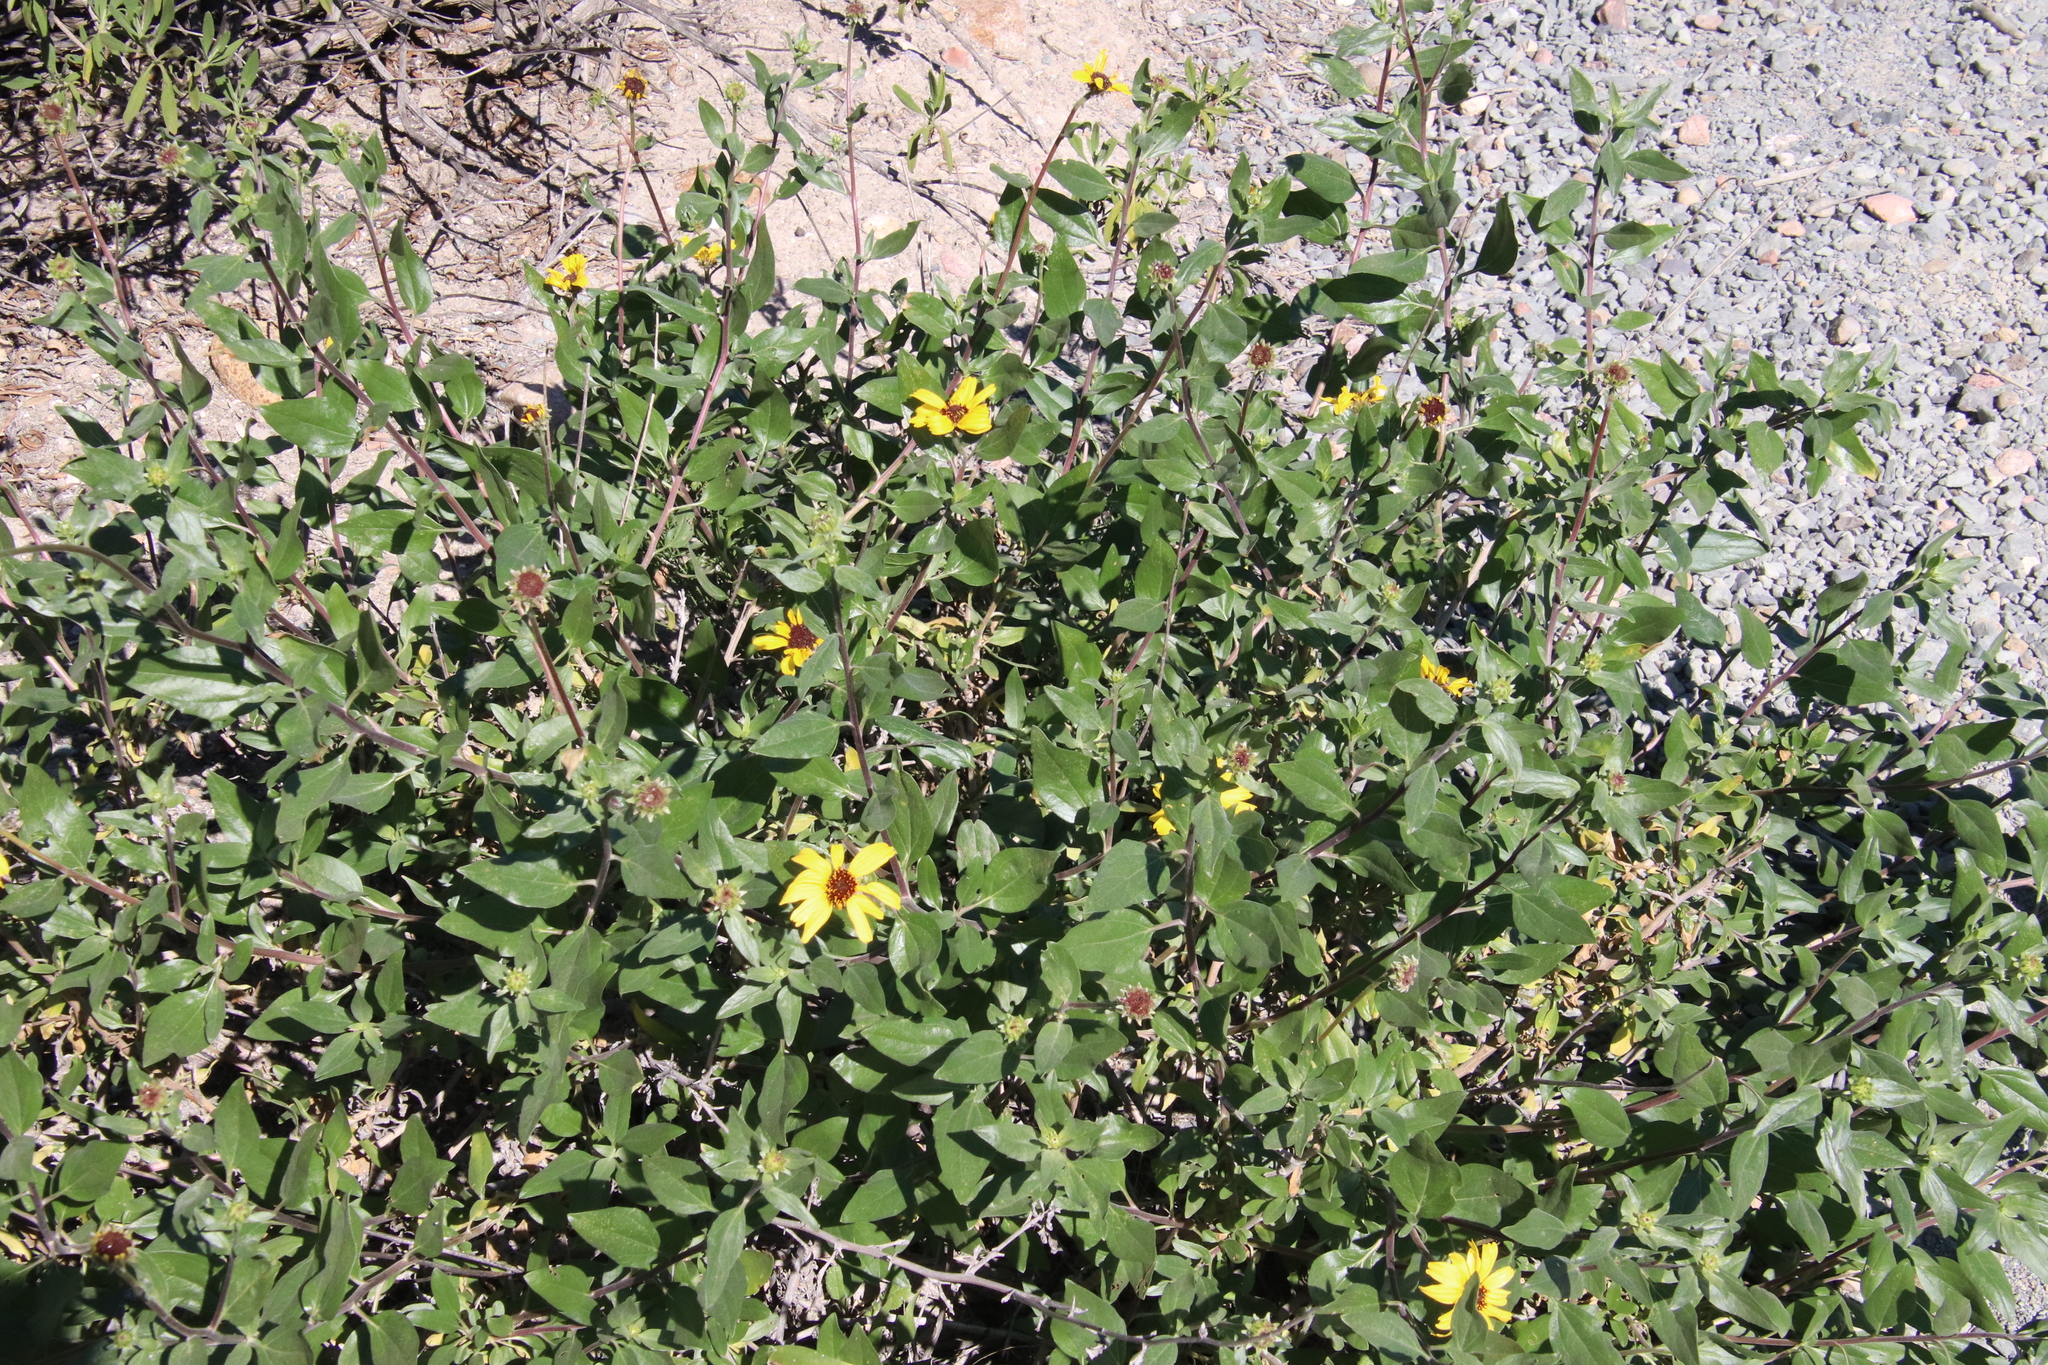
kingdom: Plantae
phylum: Tracheophyta
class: Magnoliopsida
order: Asterales
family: Asteraceae
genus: Encelia
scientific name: Encelia californica
